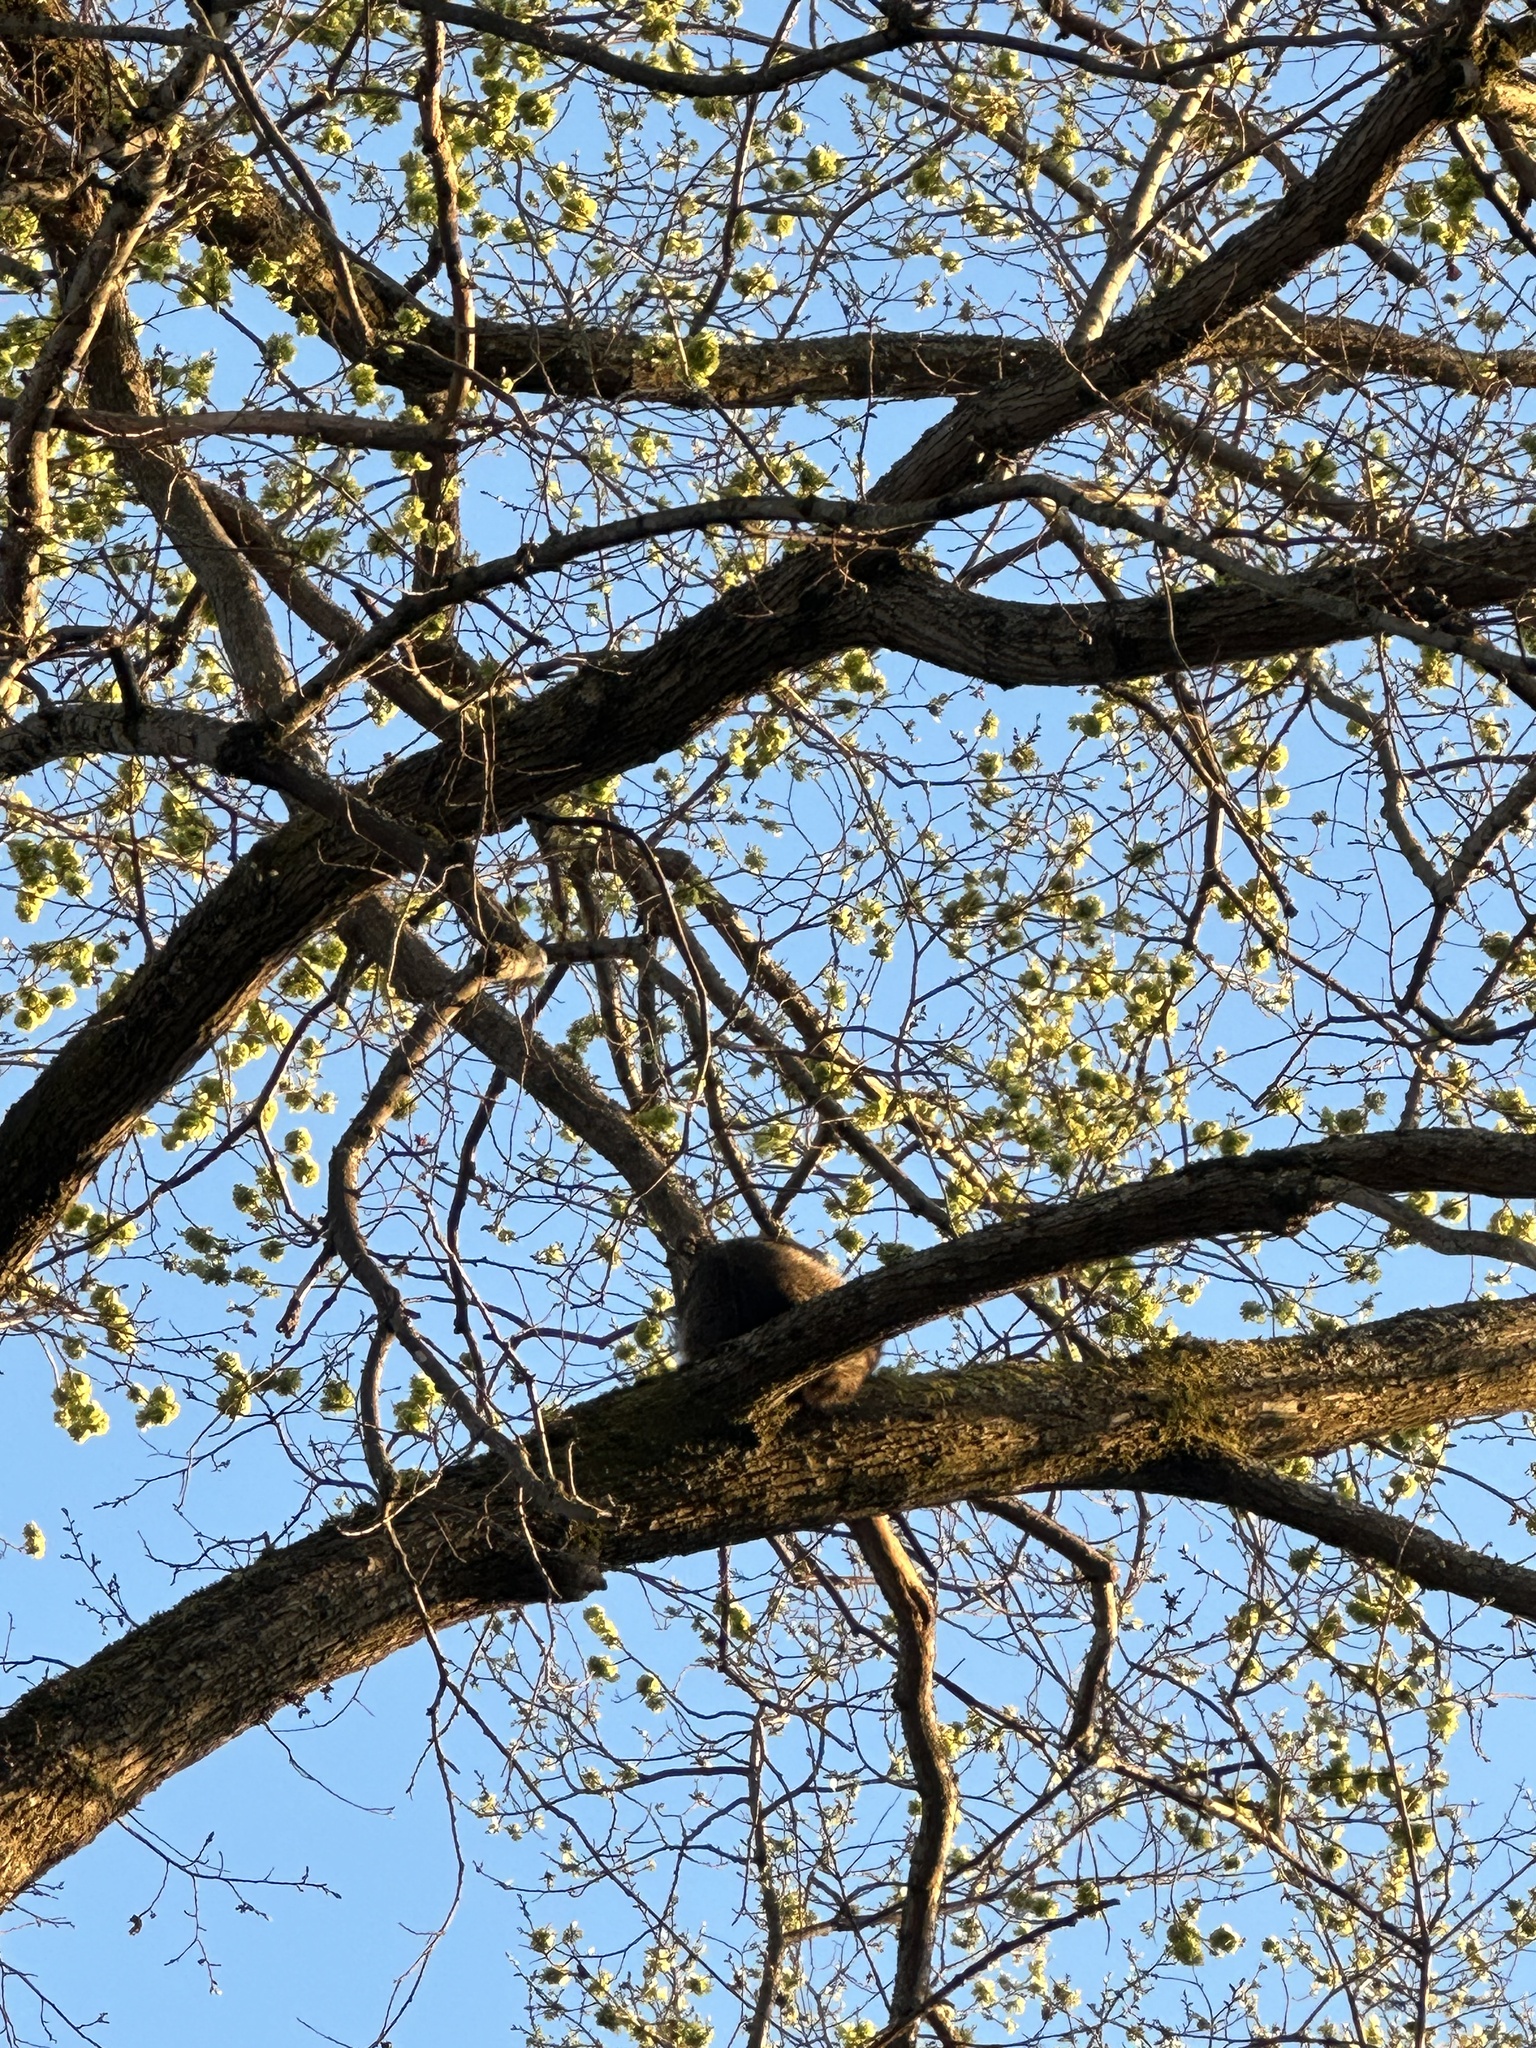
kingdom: Animalia
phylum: Chordata
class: Mammalia
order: Carnivora
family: Procyonidae
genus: Procyon
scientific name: Procyon lotor
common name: Raccoon
